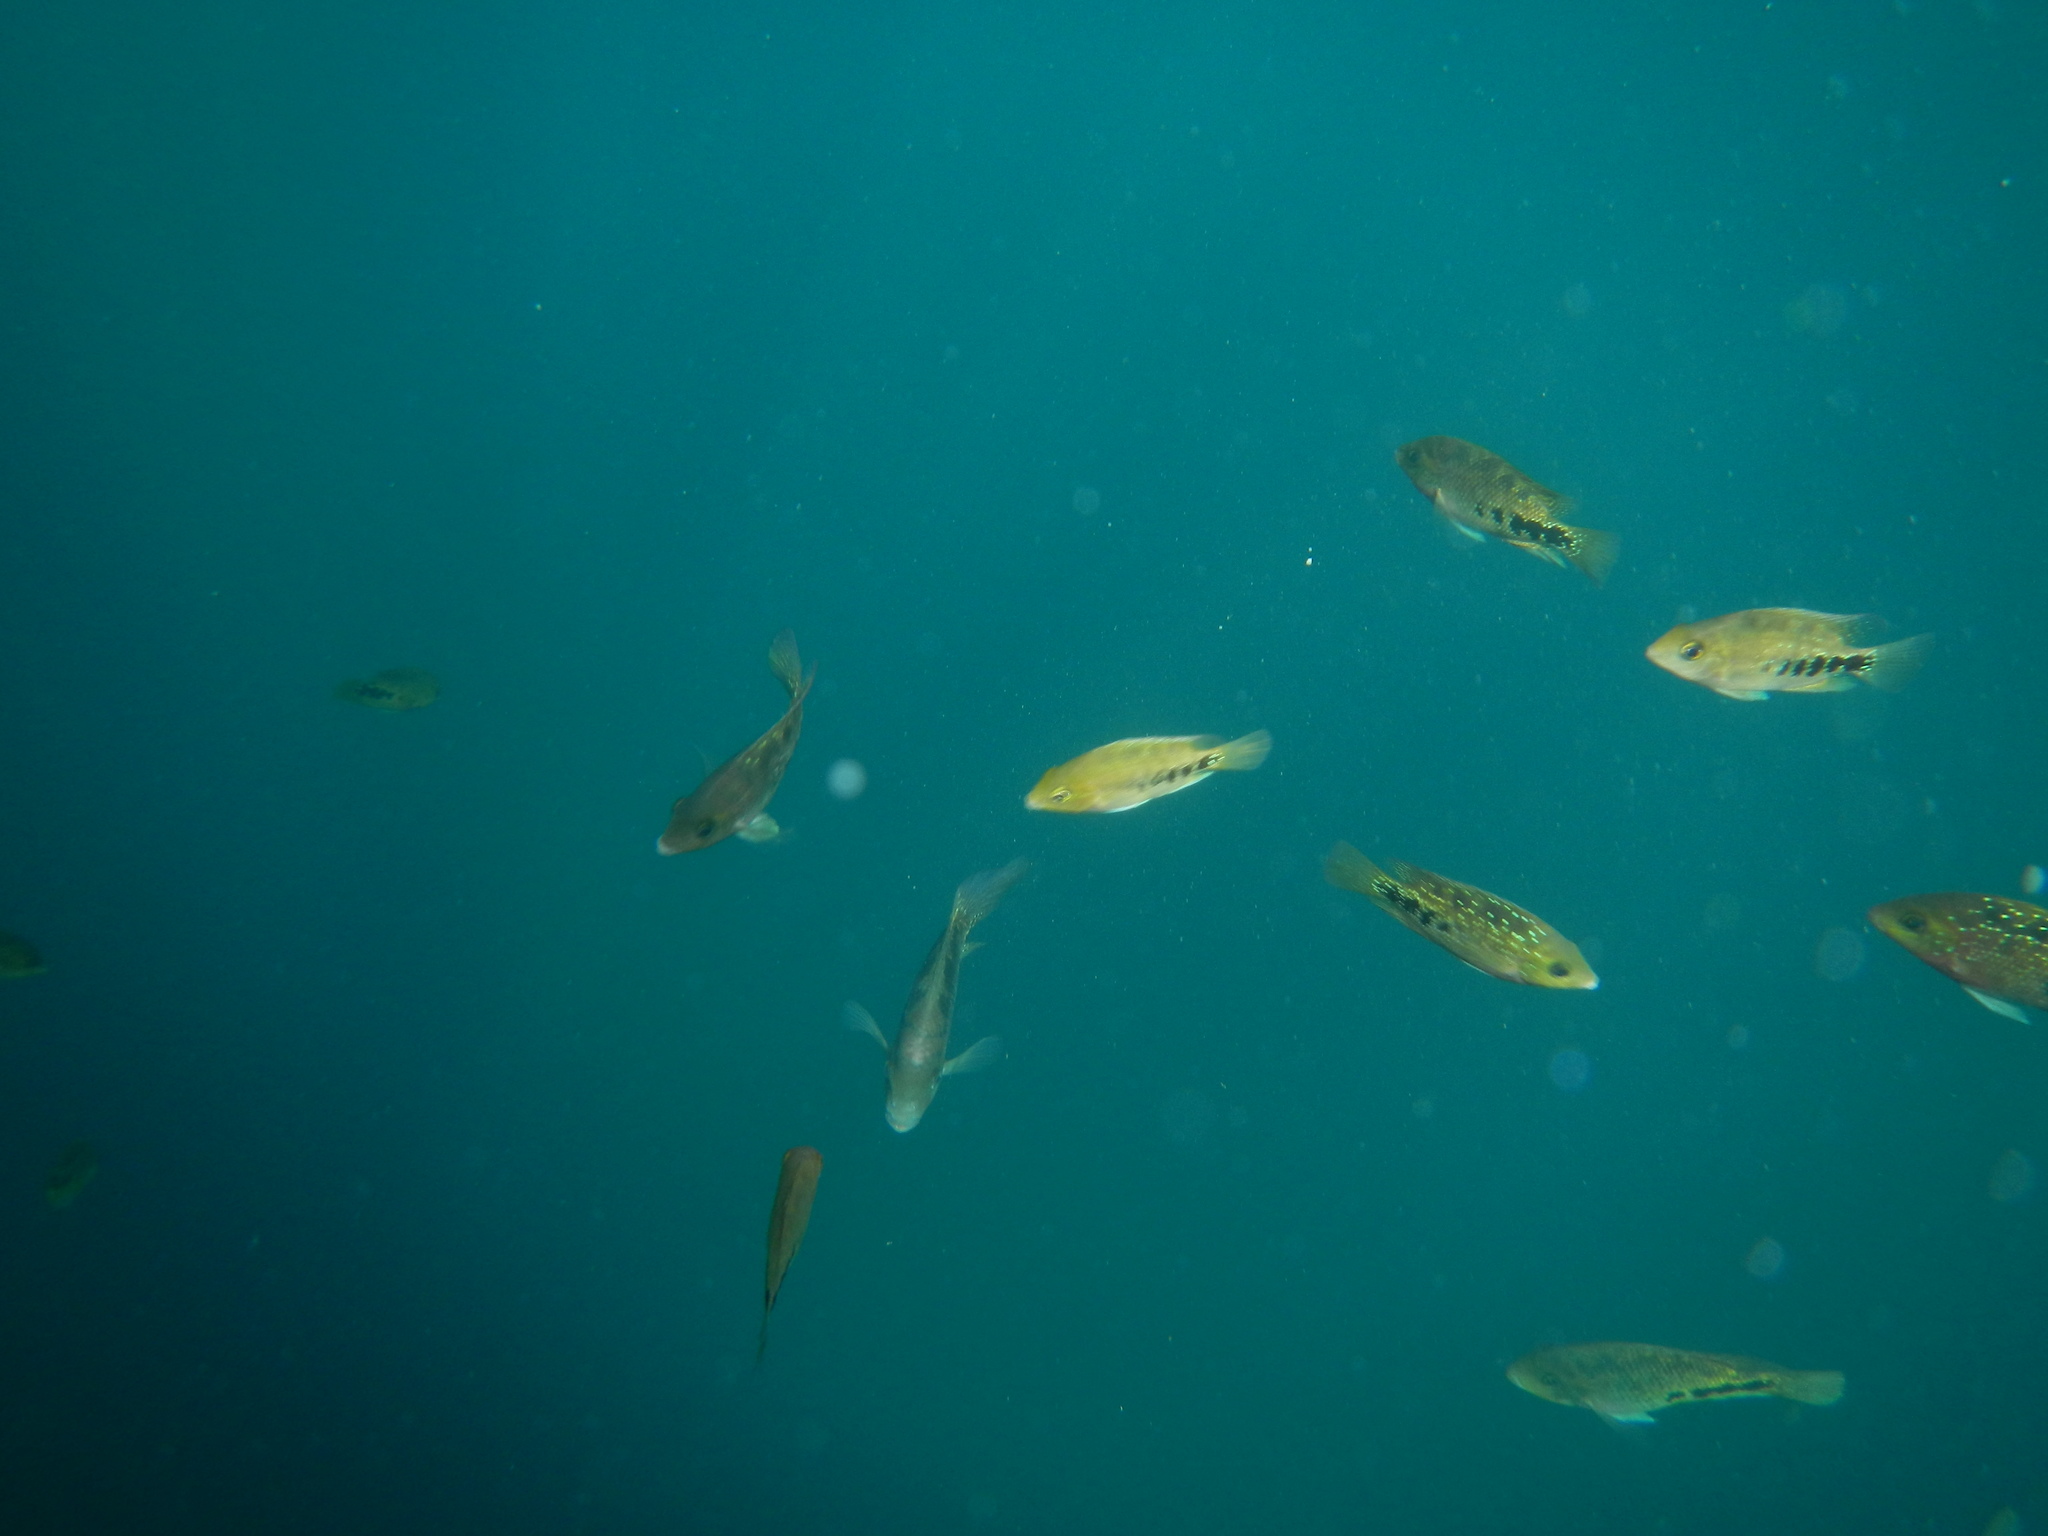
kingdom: Animalia
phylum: Chordata
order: Perciformes
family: Cichlidae
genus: Vieja
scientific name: Vieja melanura
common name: Redhead cichlid
